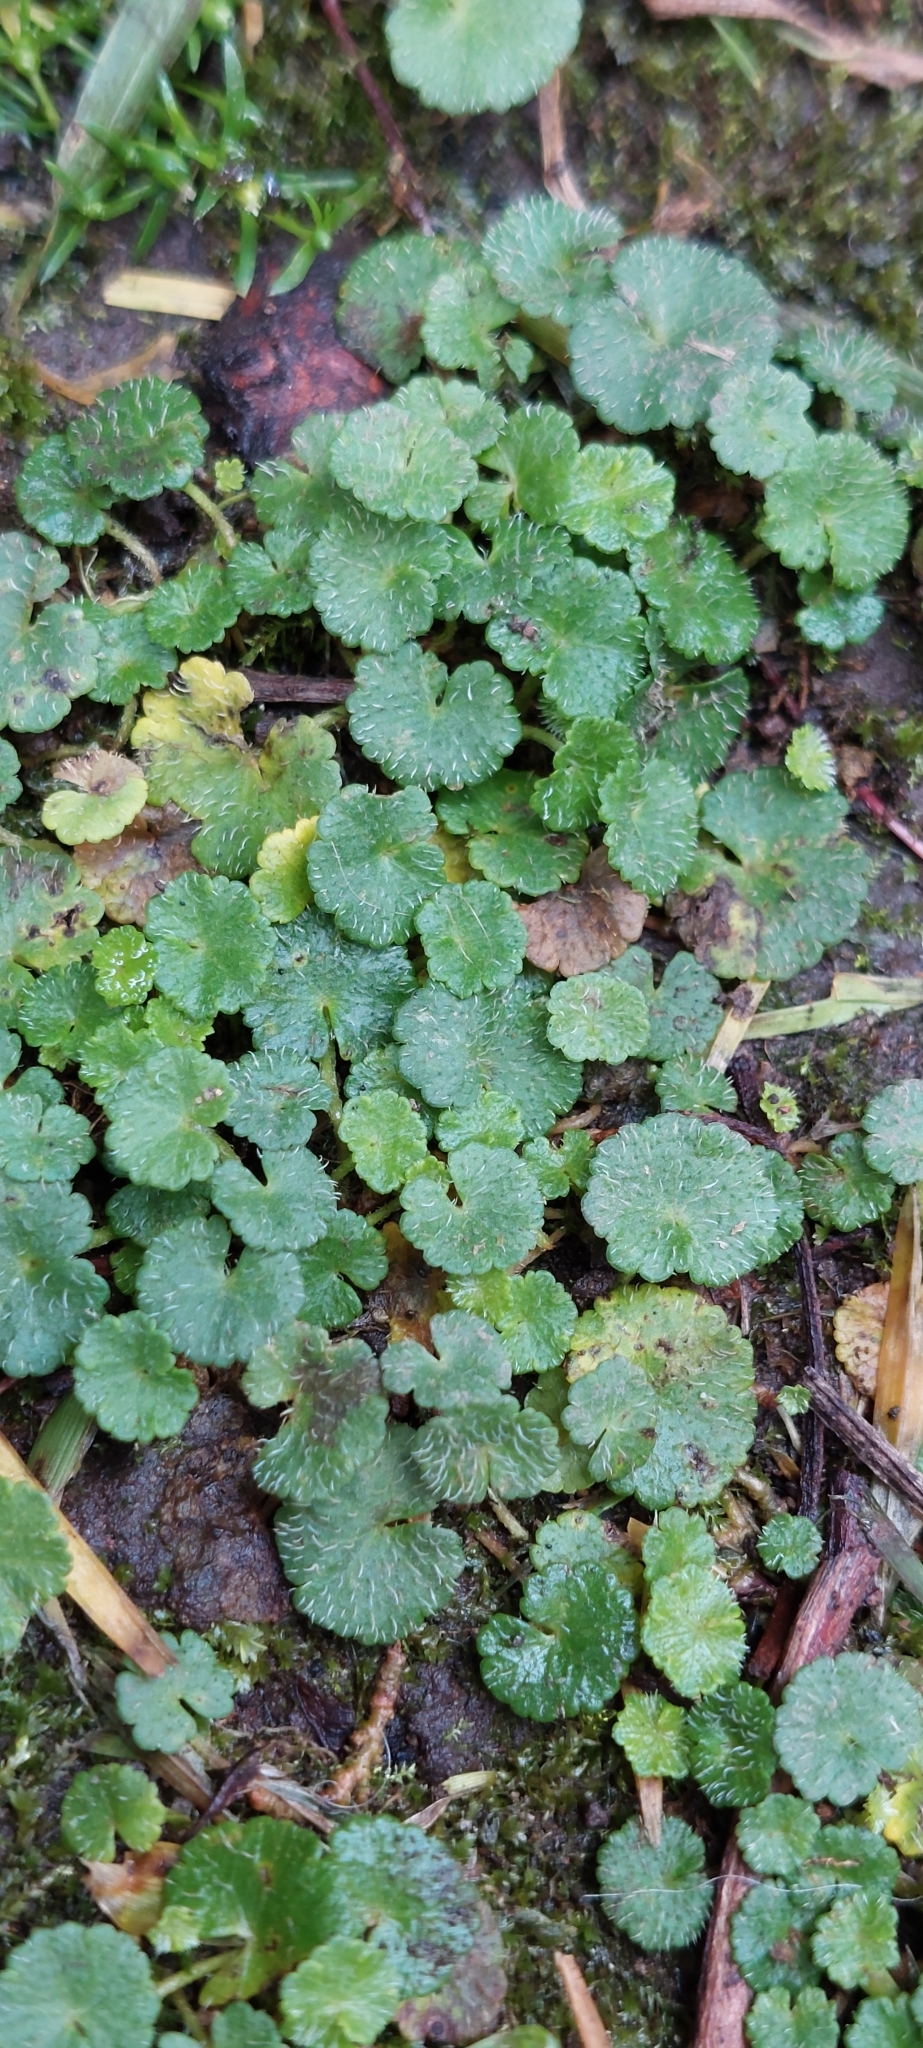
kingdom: Plantae
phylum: Tracheophyta
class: Magnoliopsida
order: Apiales
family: Araliaceae
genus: Hydrocotyle
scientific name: Hydrocotyle bonplandii
